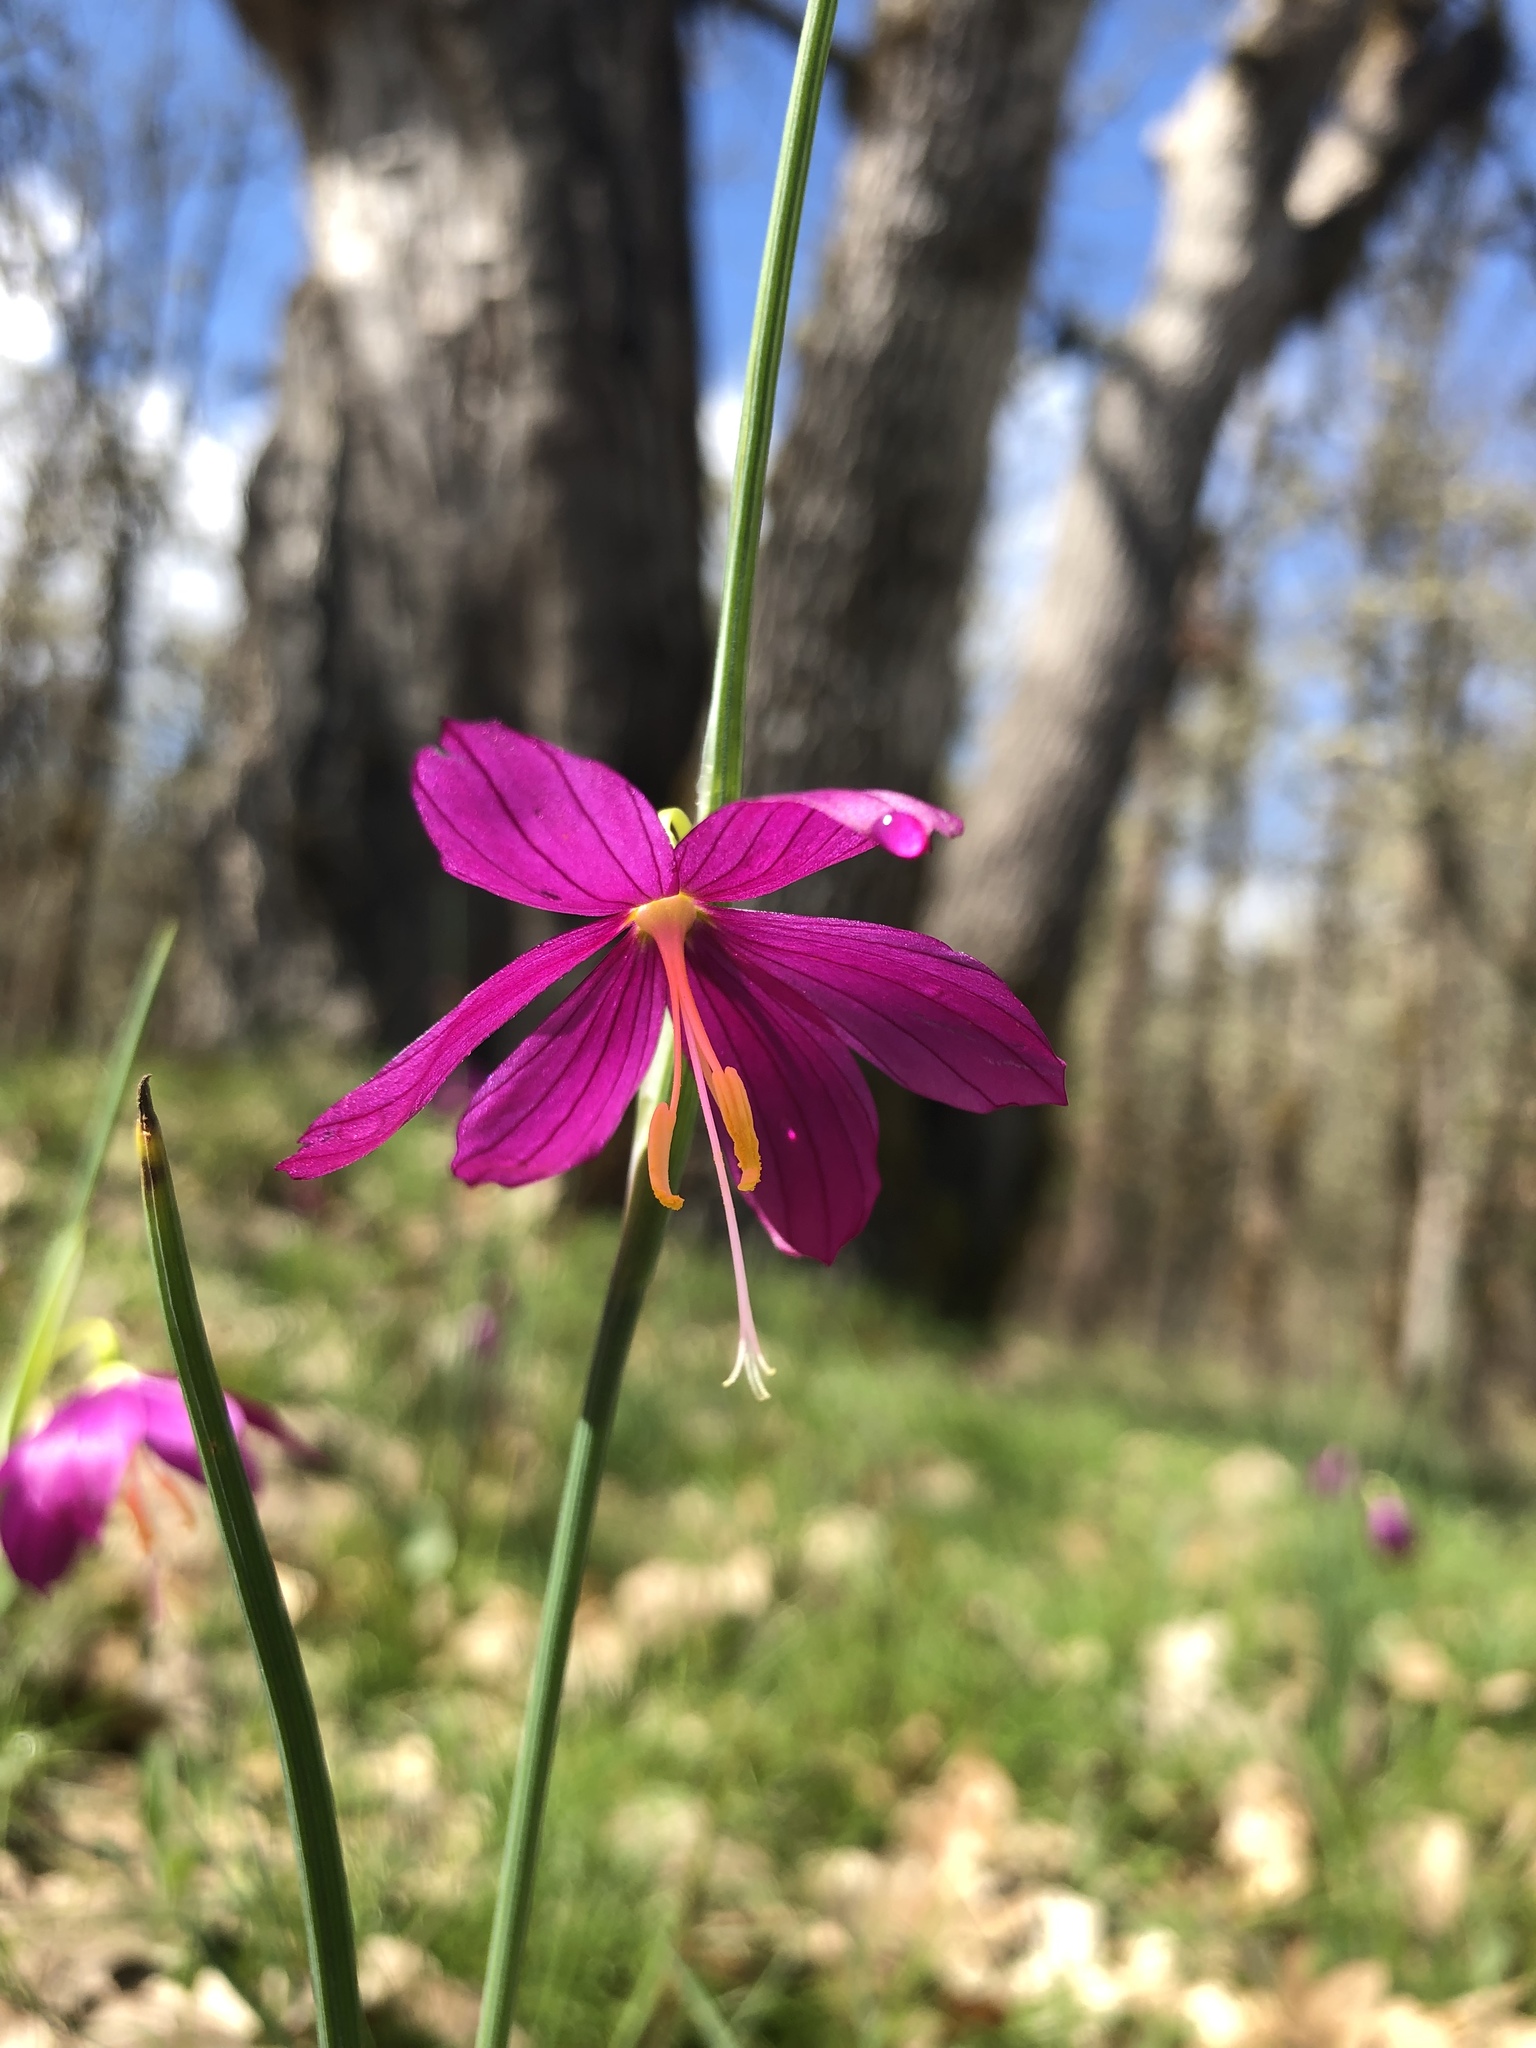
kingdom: Plantae
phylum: Tracheophyta
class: Liliopsida
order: Asparagales
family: Iridaceae
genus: Olsynium
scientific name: Olsynium douglasii
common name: Douglas' grasswidow
